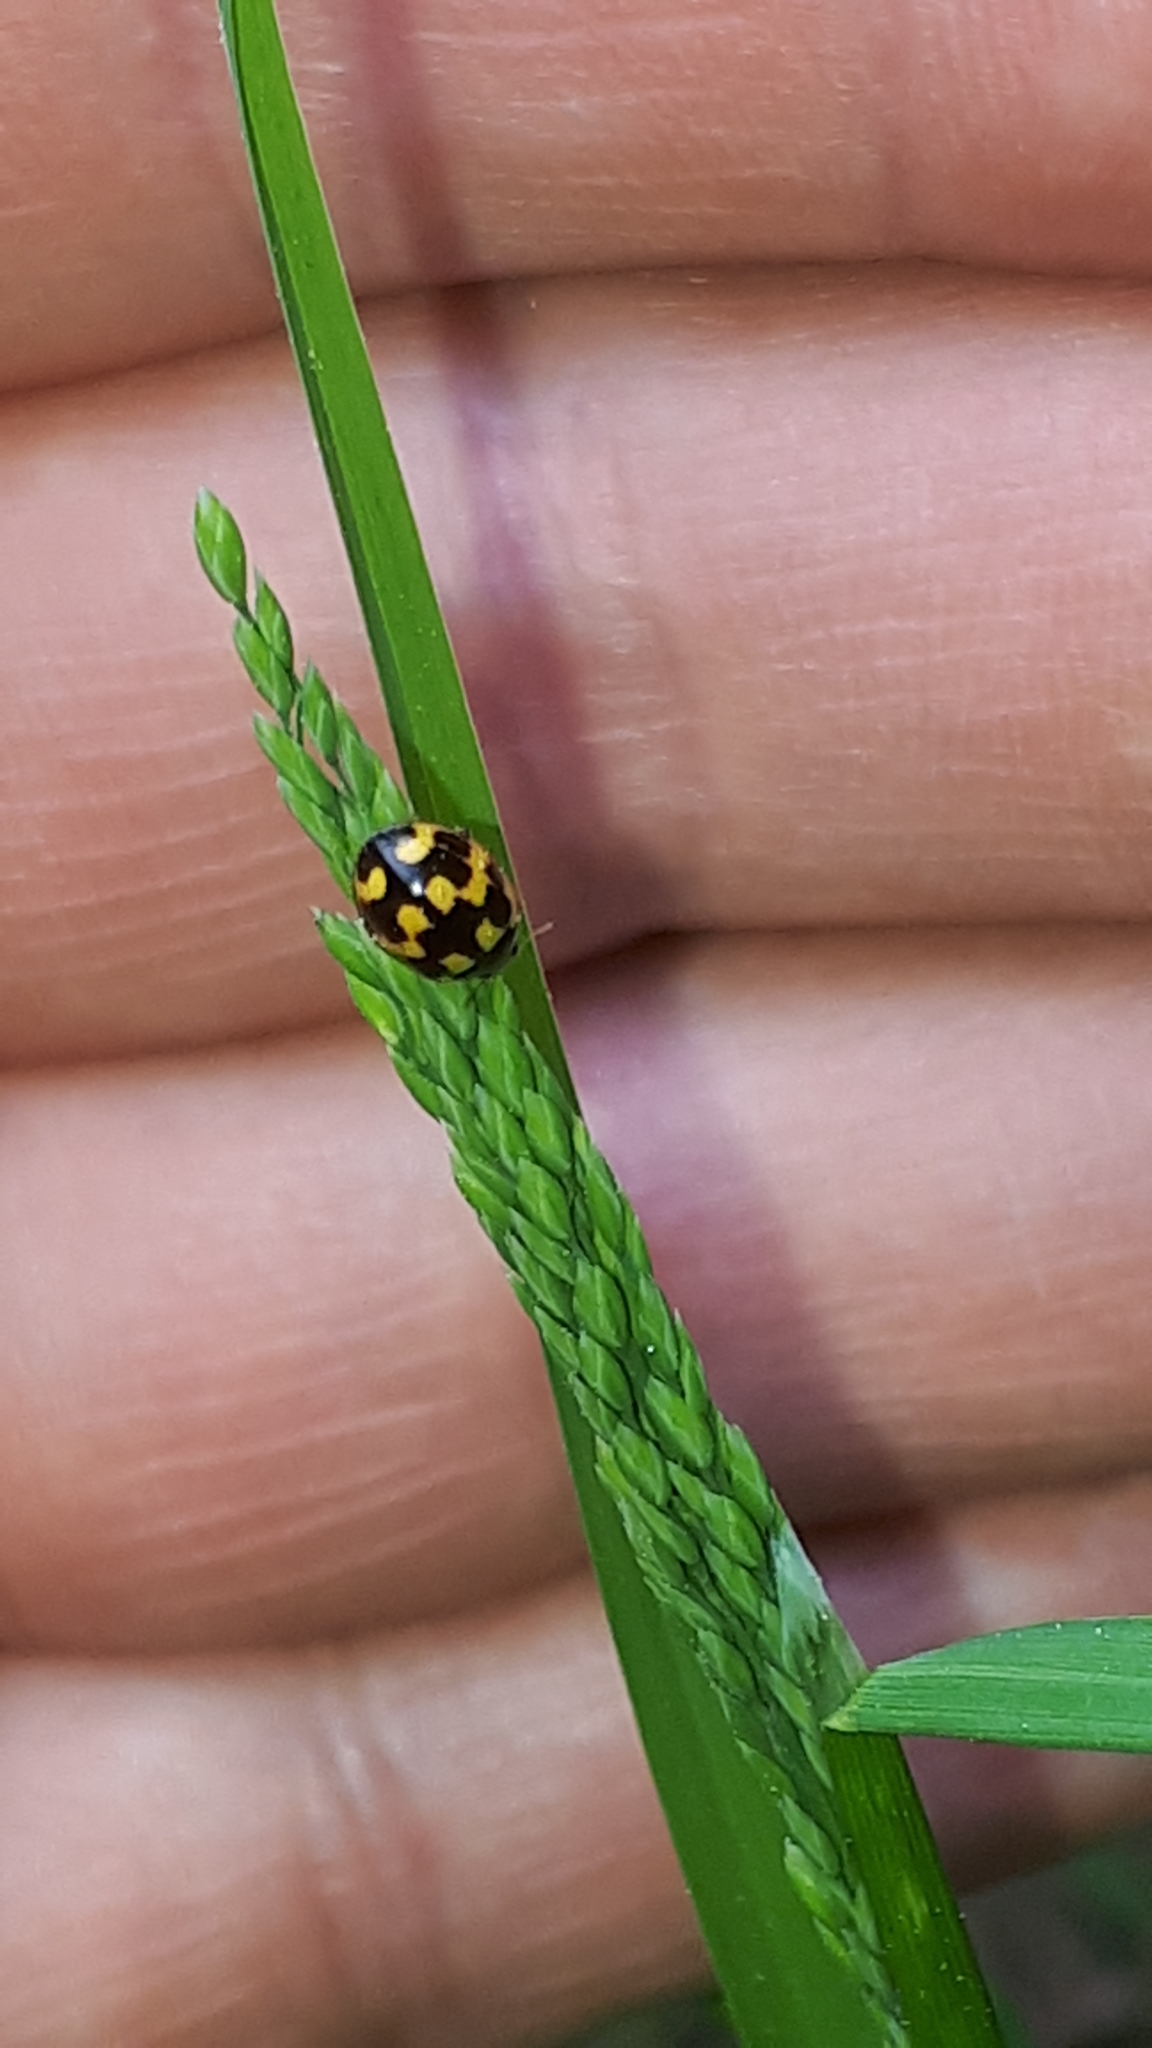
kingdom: Animalia
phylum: Arthropoda
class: Insecta
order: Coleoptera
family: Coccinellidae
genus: Propylaea
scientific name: Propylaea quatuordecimpunctata
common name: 14-spotted ladybird beetle
